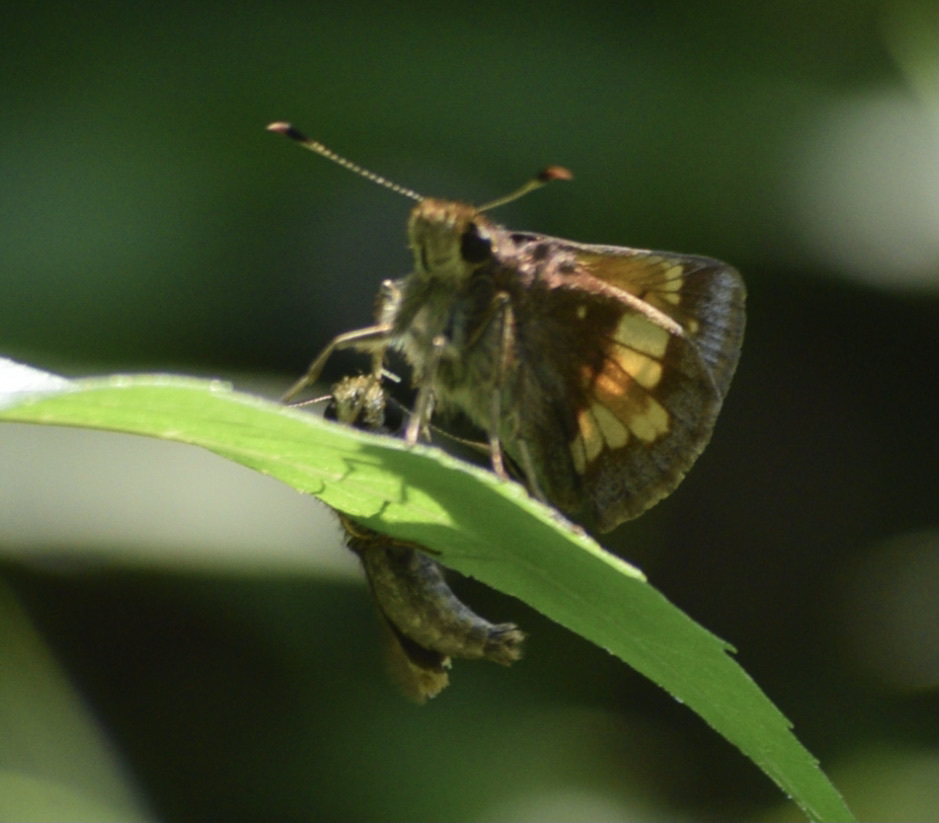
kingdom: Animalia
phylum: Arthropoda
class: Insecta
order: Lepidoptera
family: Hesperiidae
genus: Lon
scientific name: Lon hobomok
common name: Hobomok skipper
